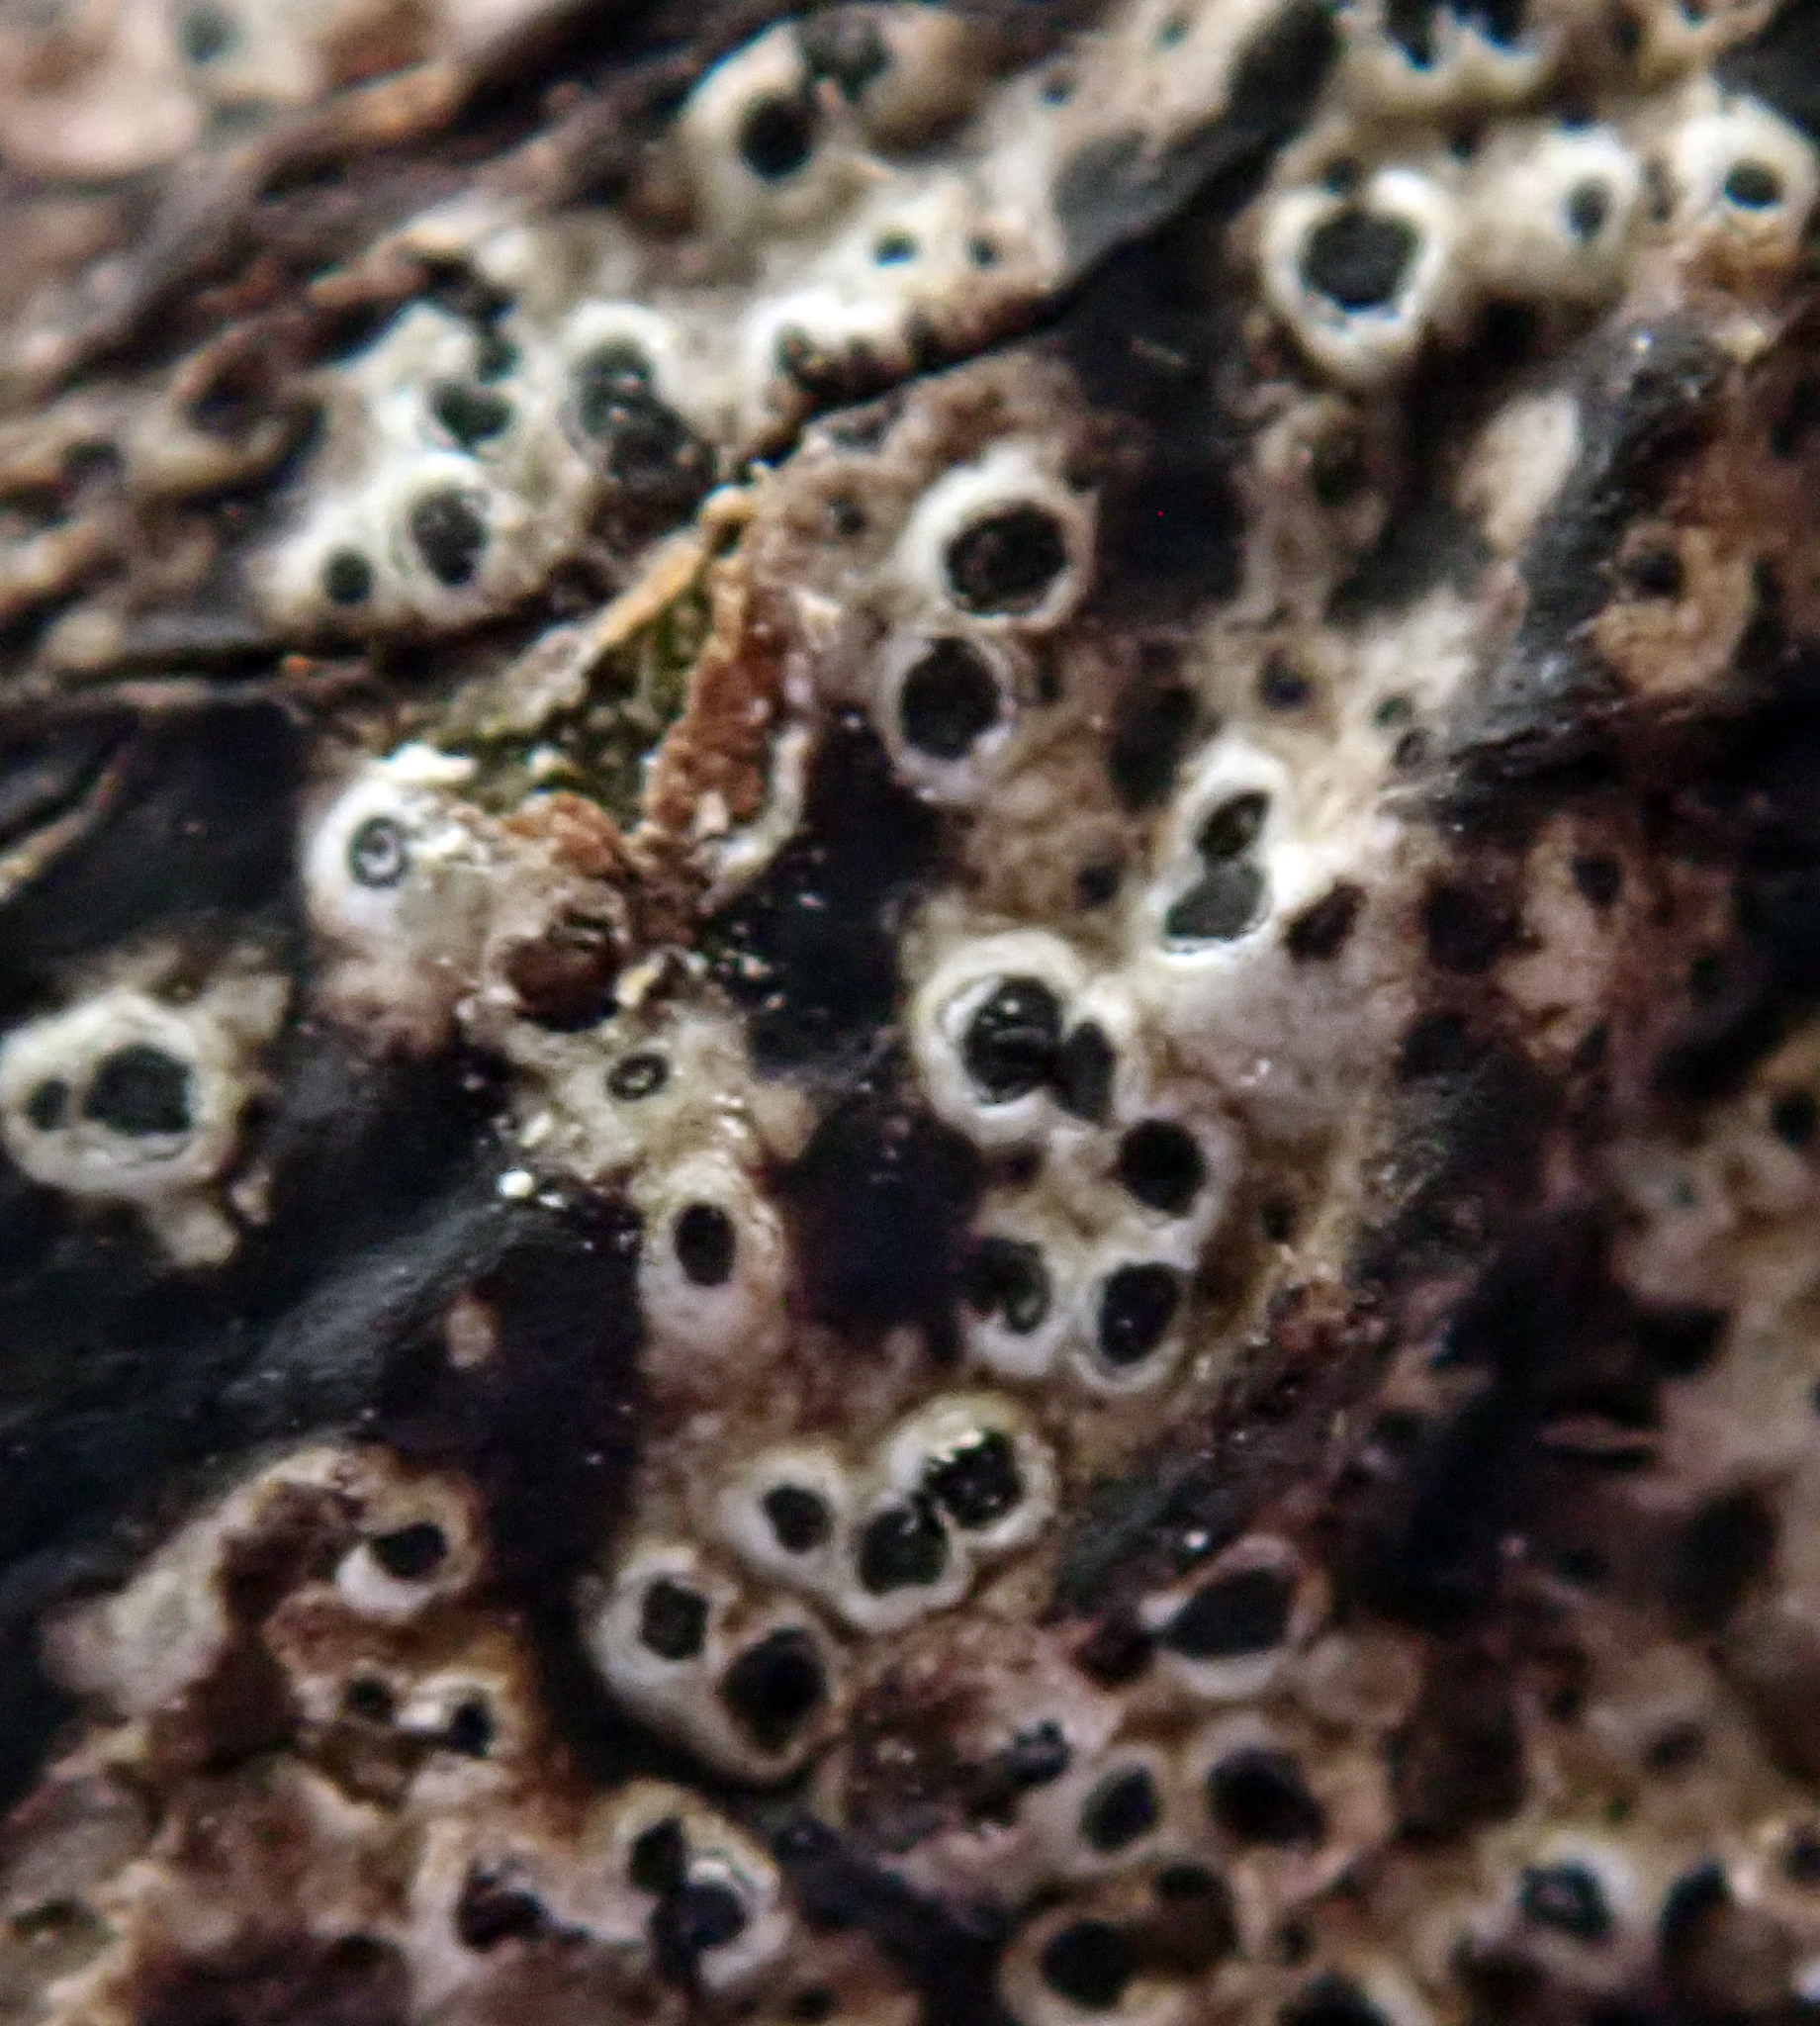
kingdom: Fungi
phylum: Ascomycota
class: Arthoniomycetes
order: Arthoniales
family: Roccellaceae
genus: Mazosia
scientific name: Mazosia phyllosema
